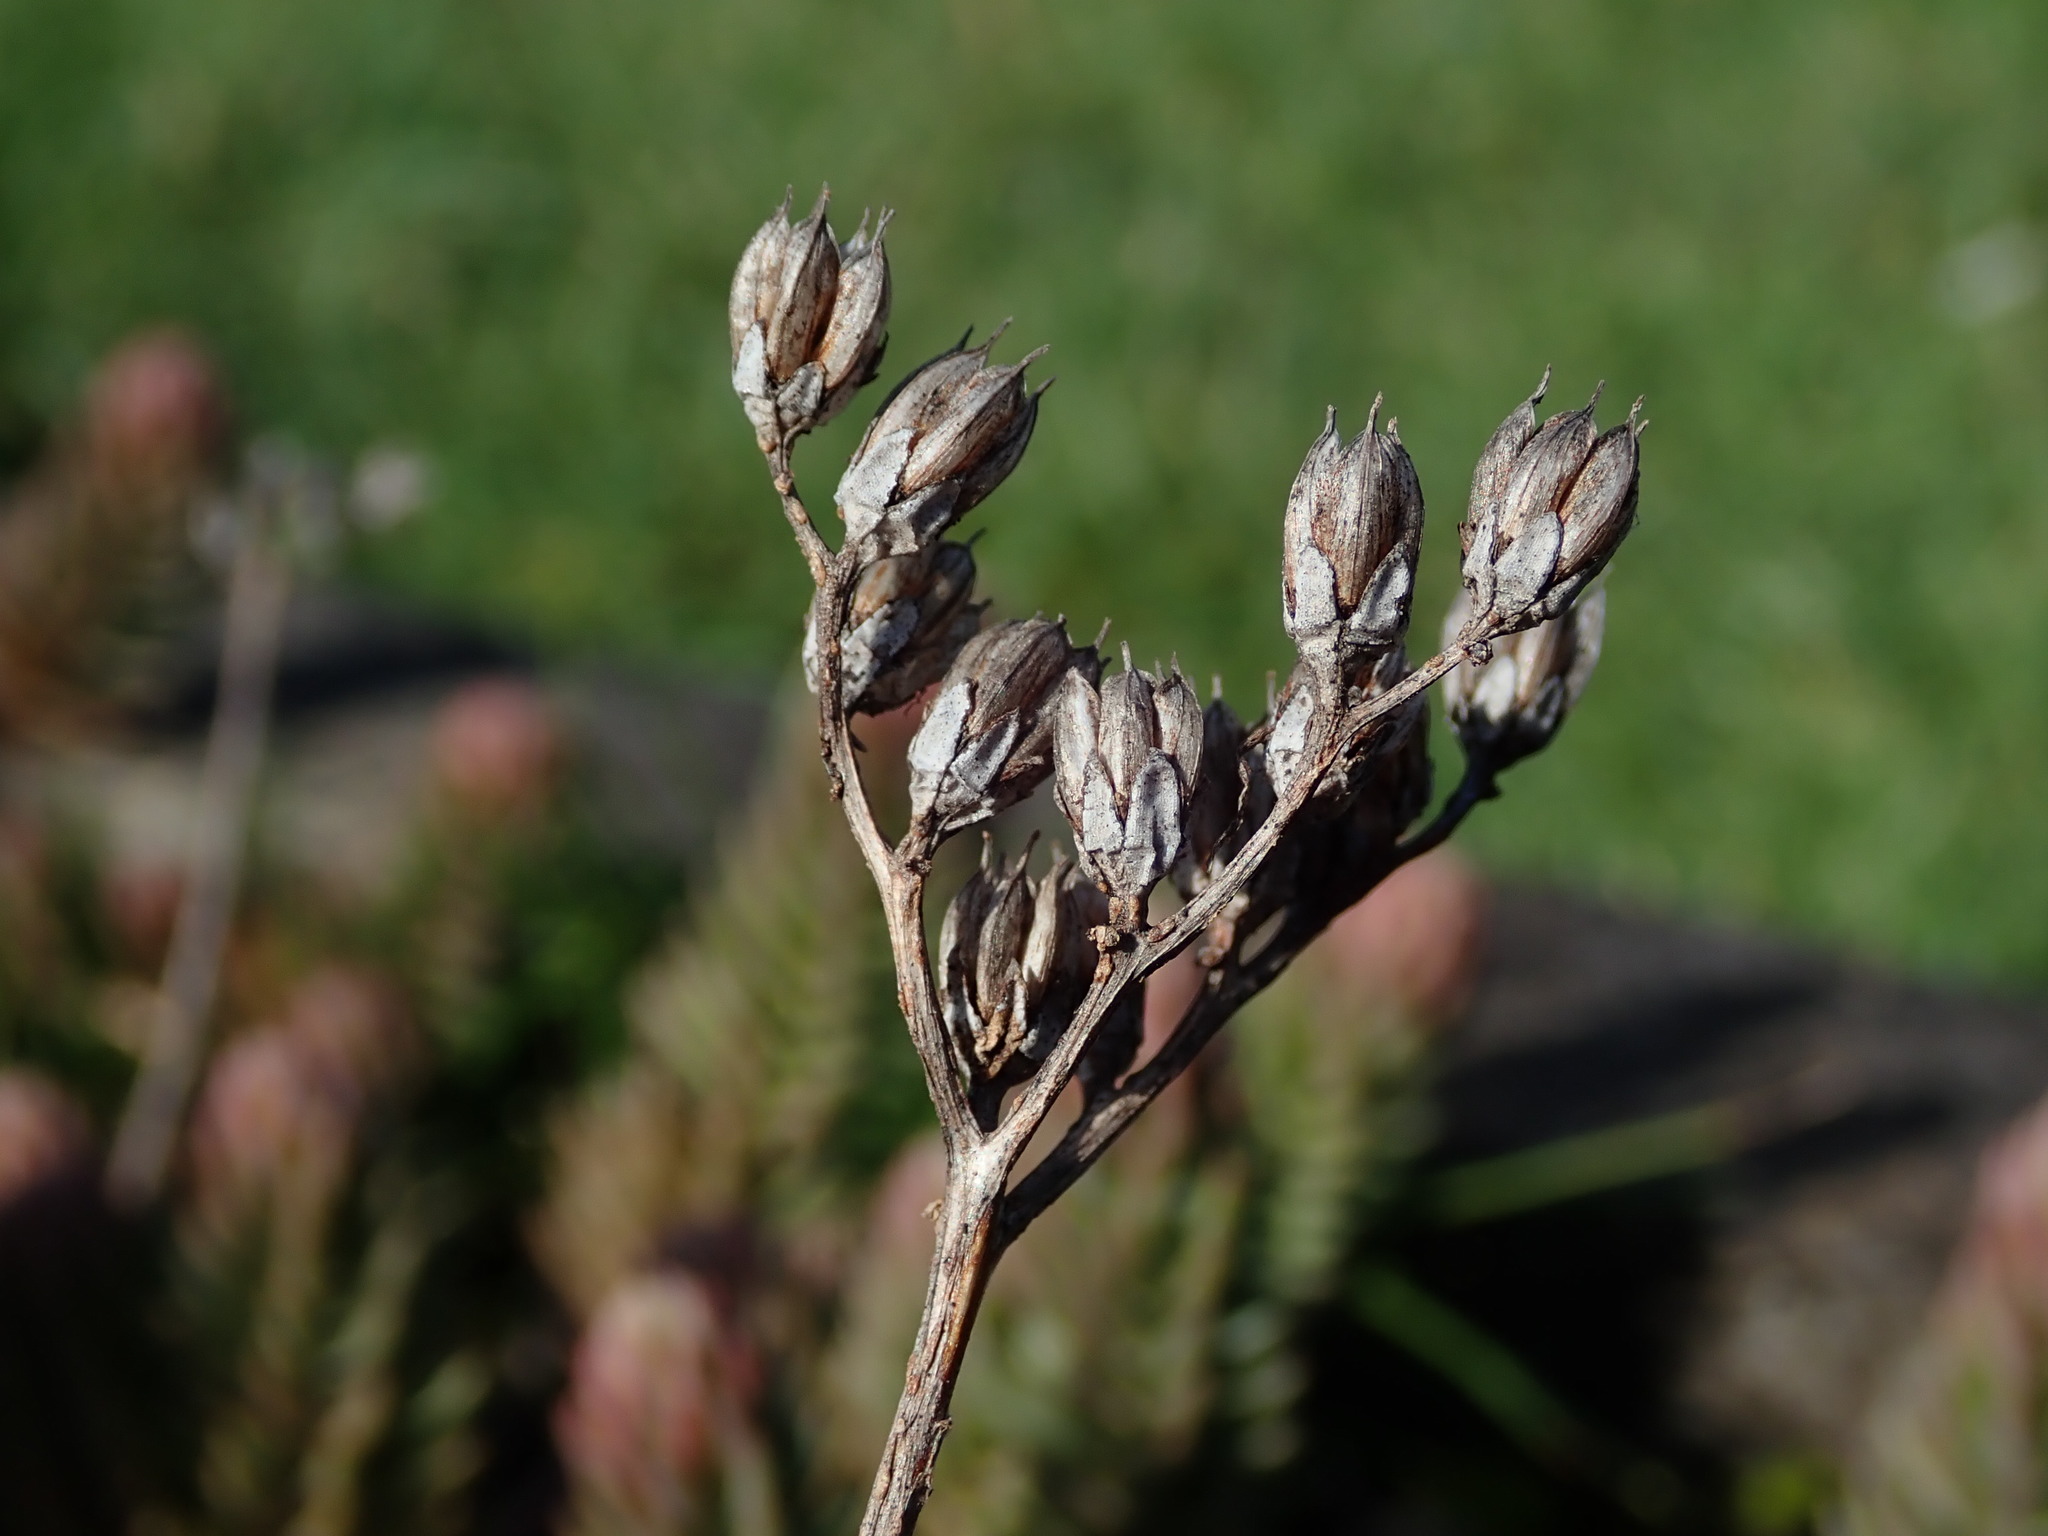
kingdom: Plantae
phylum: Tracheophyta
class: Magnoliopsida
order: Saxifragales
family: Crassulaceae
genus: Petrosedum
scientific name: Petrosedum rupestre
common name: Jenny's stonecrop
